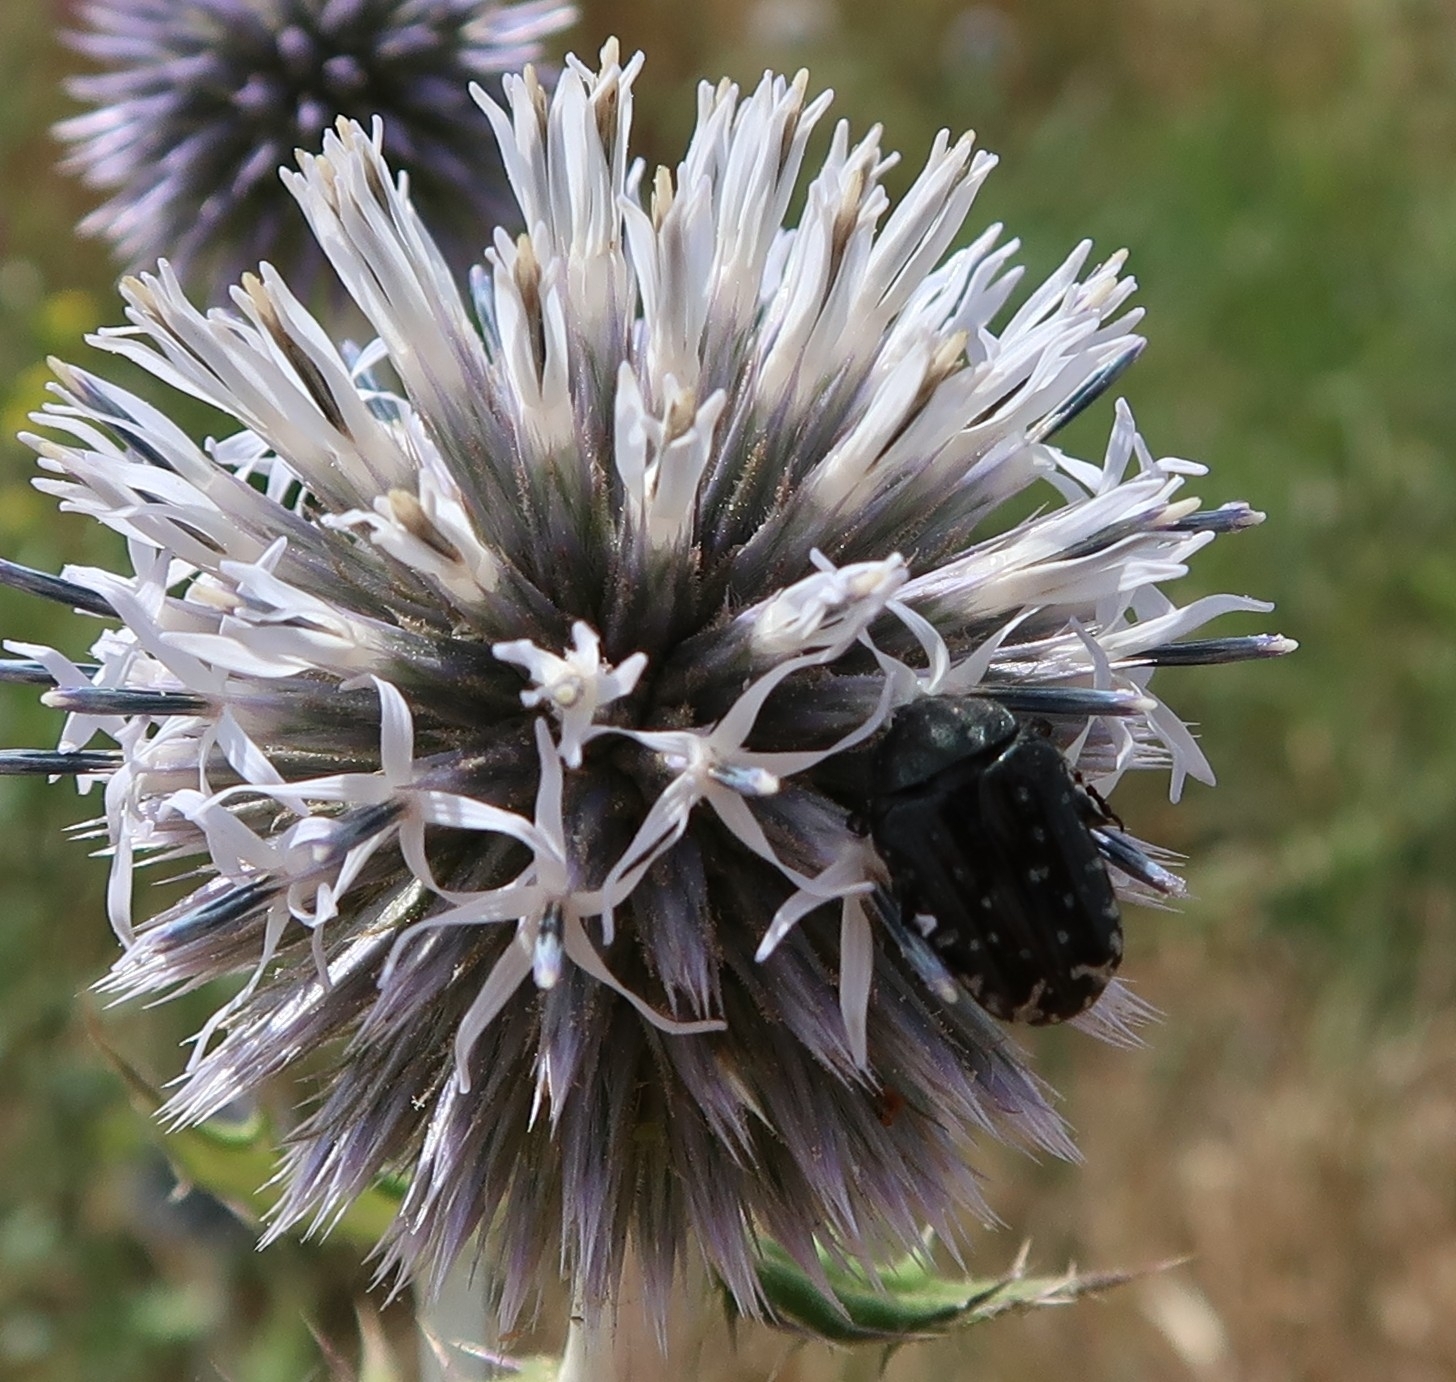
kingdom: Animalia
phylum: Arthropoda
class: Insecta
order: Coleoptera
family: Scarabaeidae
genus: Oxythyrea
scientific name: Oxythyrea funesta
